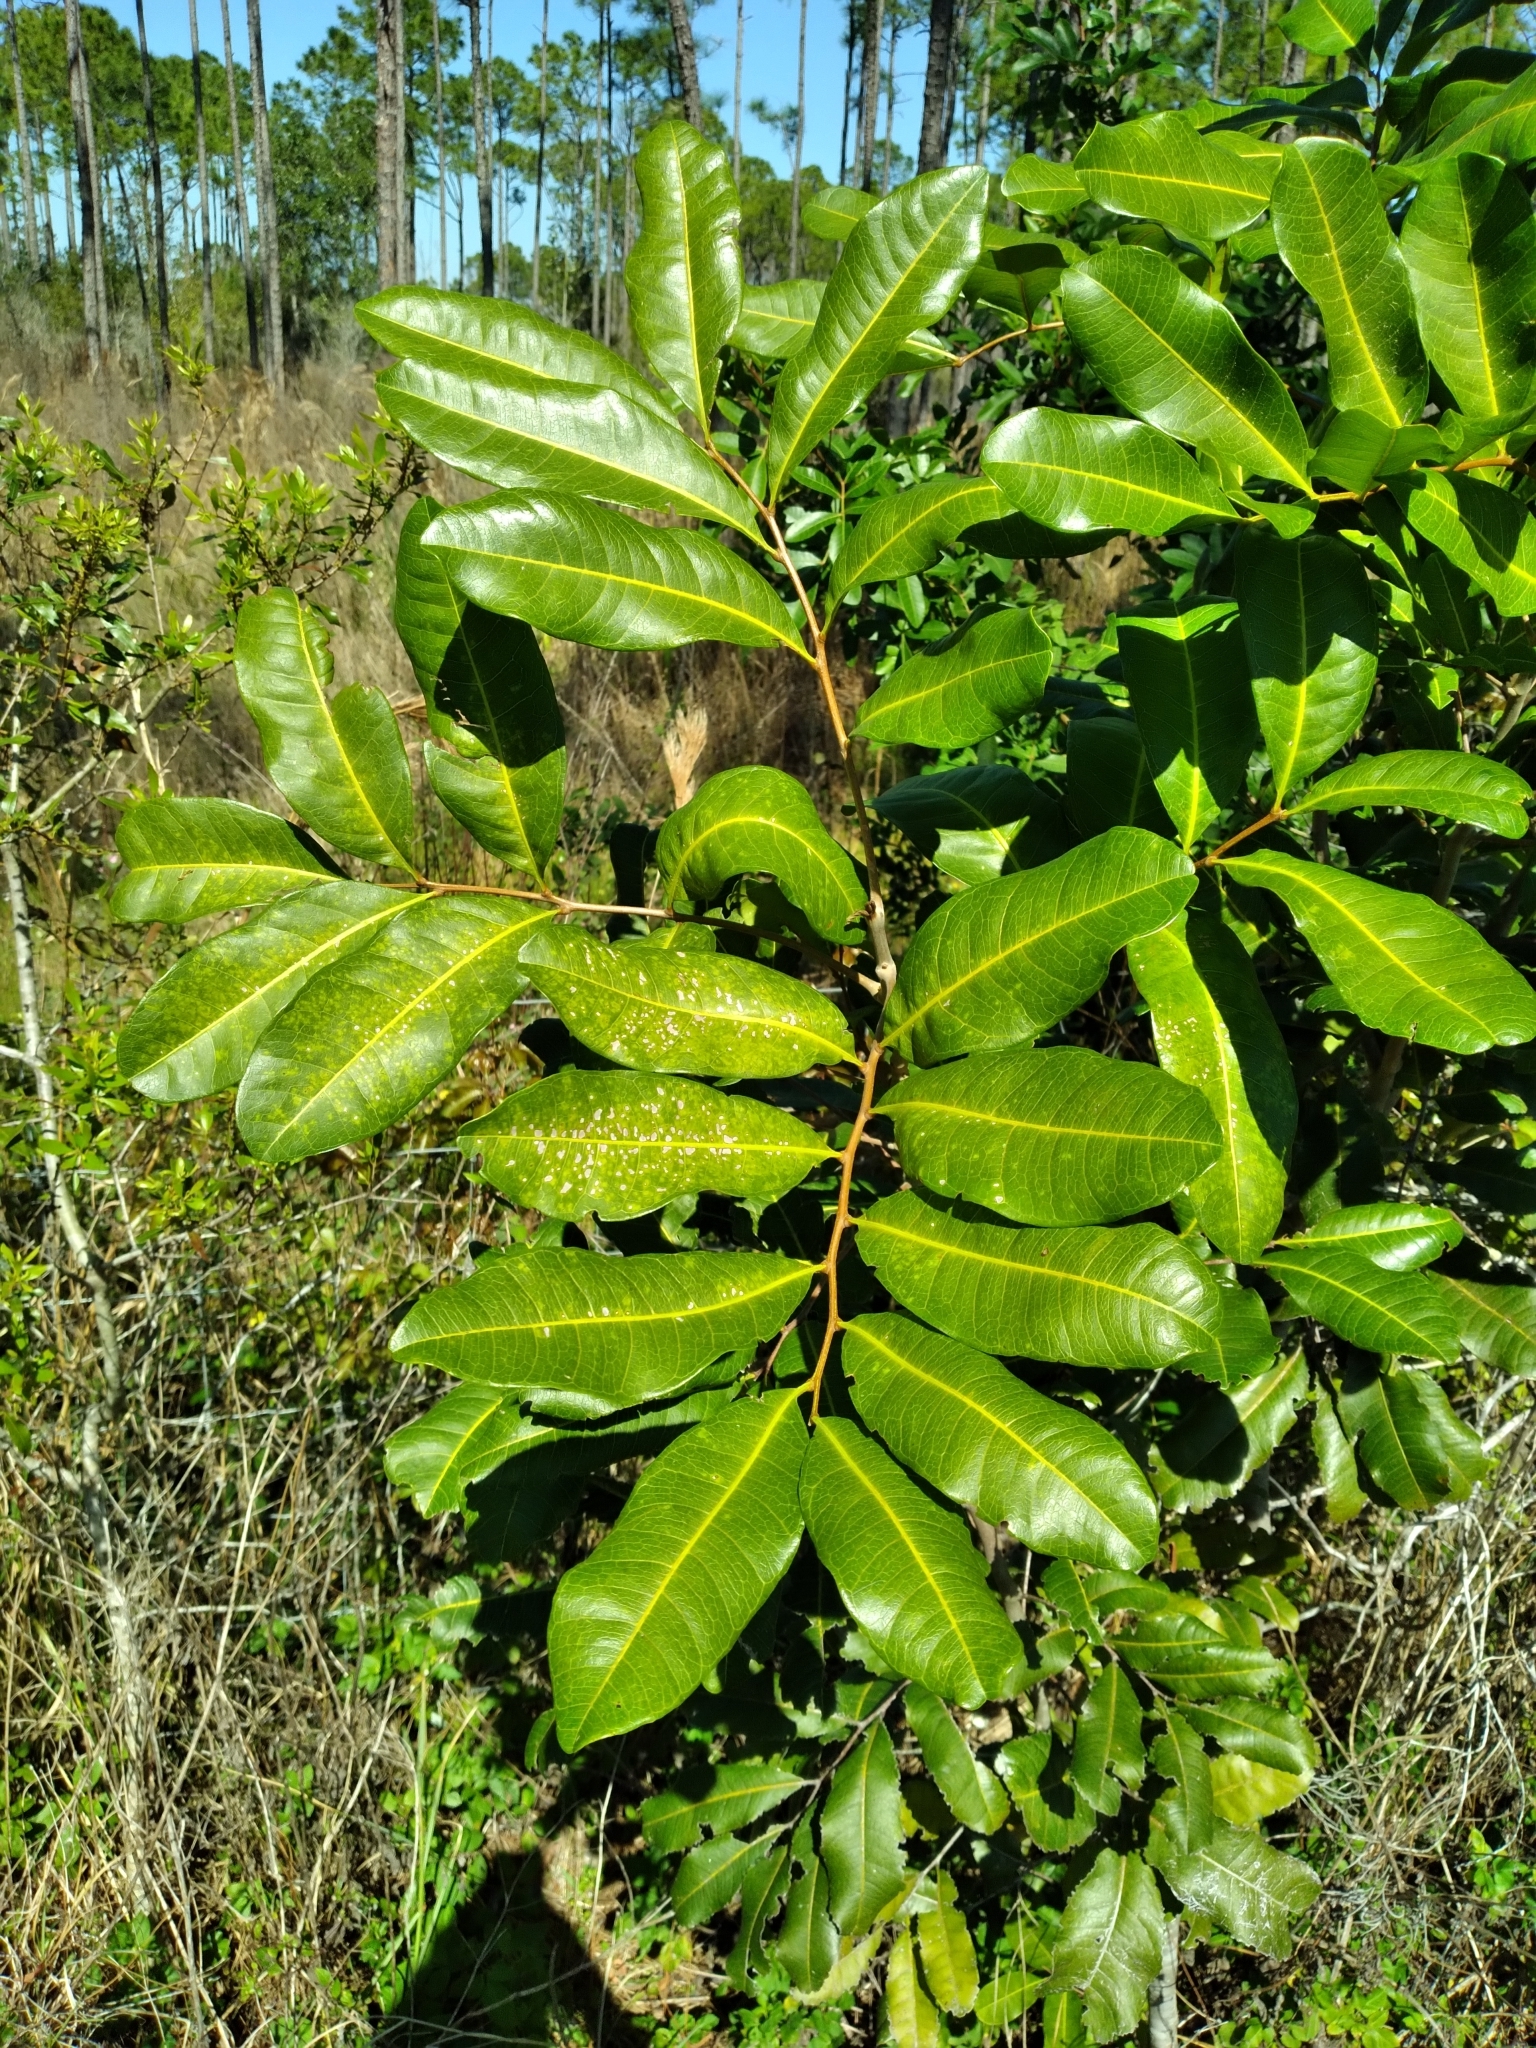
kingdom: Plantae
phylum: Tracheophyta
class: Magnoliopsida
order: Sapindales
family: Sapindaceae
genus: Cupaniopsis
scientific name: Cupaniopsis anacardioides
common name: Carrotwood
